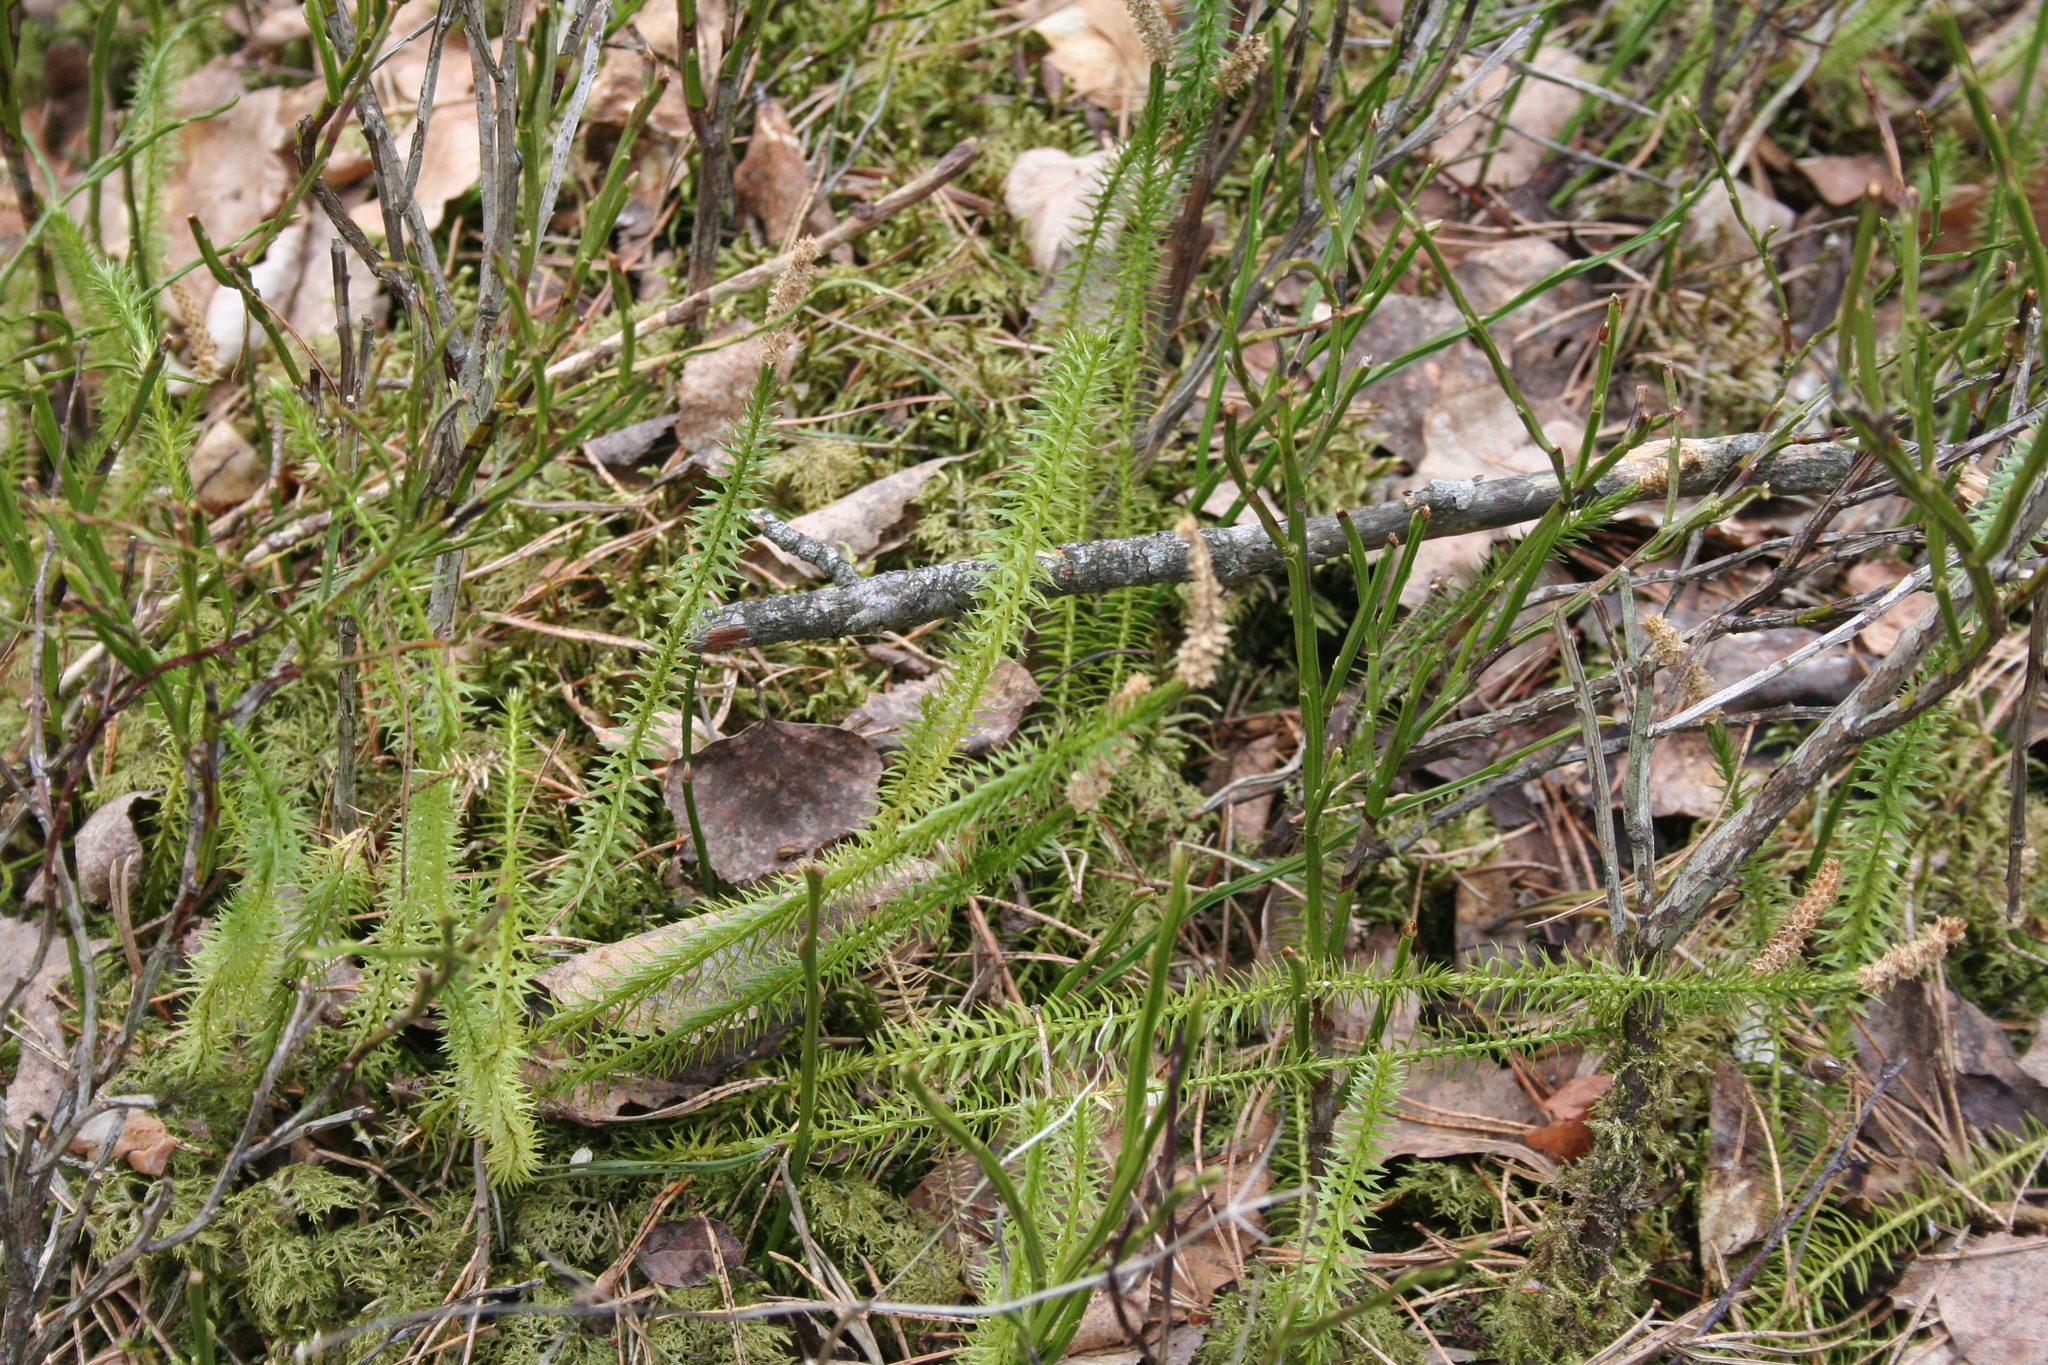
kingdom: Plantae
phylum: Tracheophyta
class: Lycopodiopsida
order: Lycopodiales
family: Lycopodiaceae
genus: Spinulum
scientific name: Spinulum annotinum
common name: Interrupted club-moss
